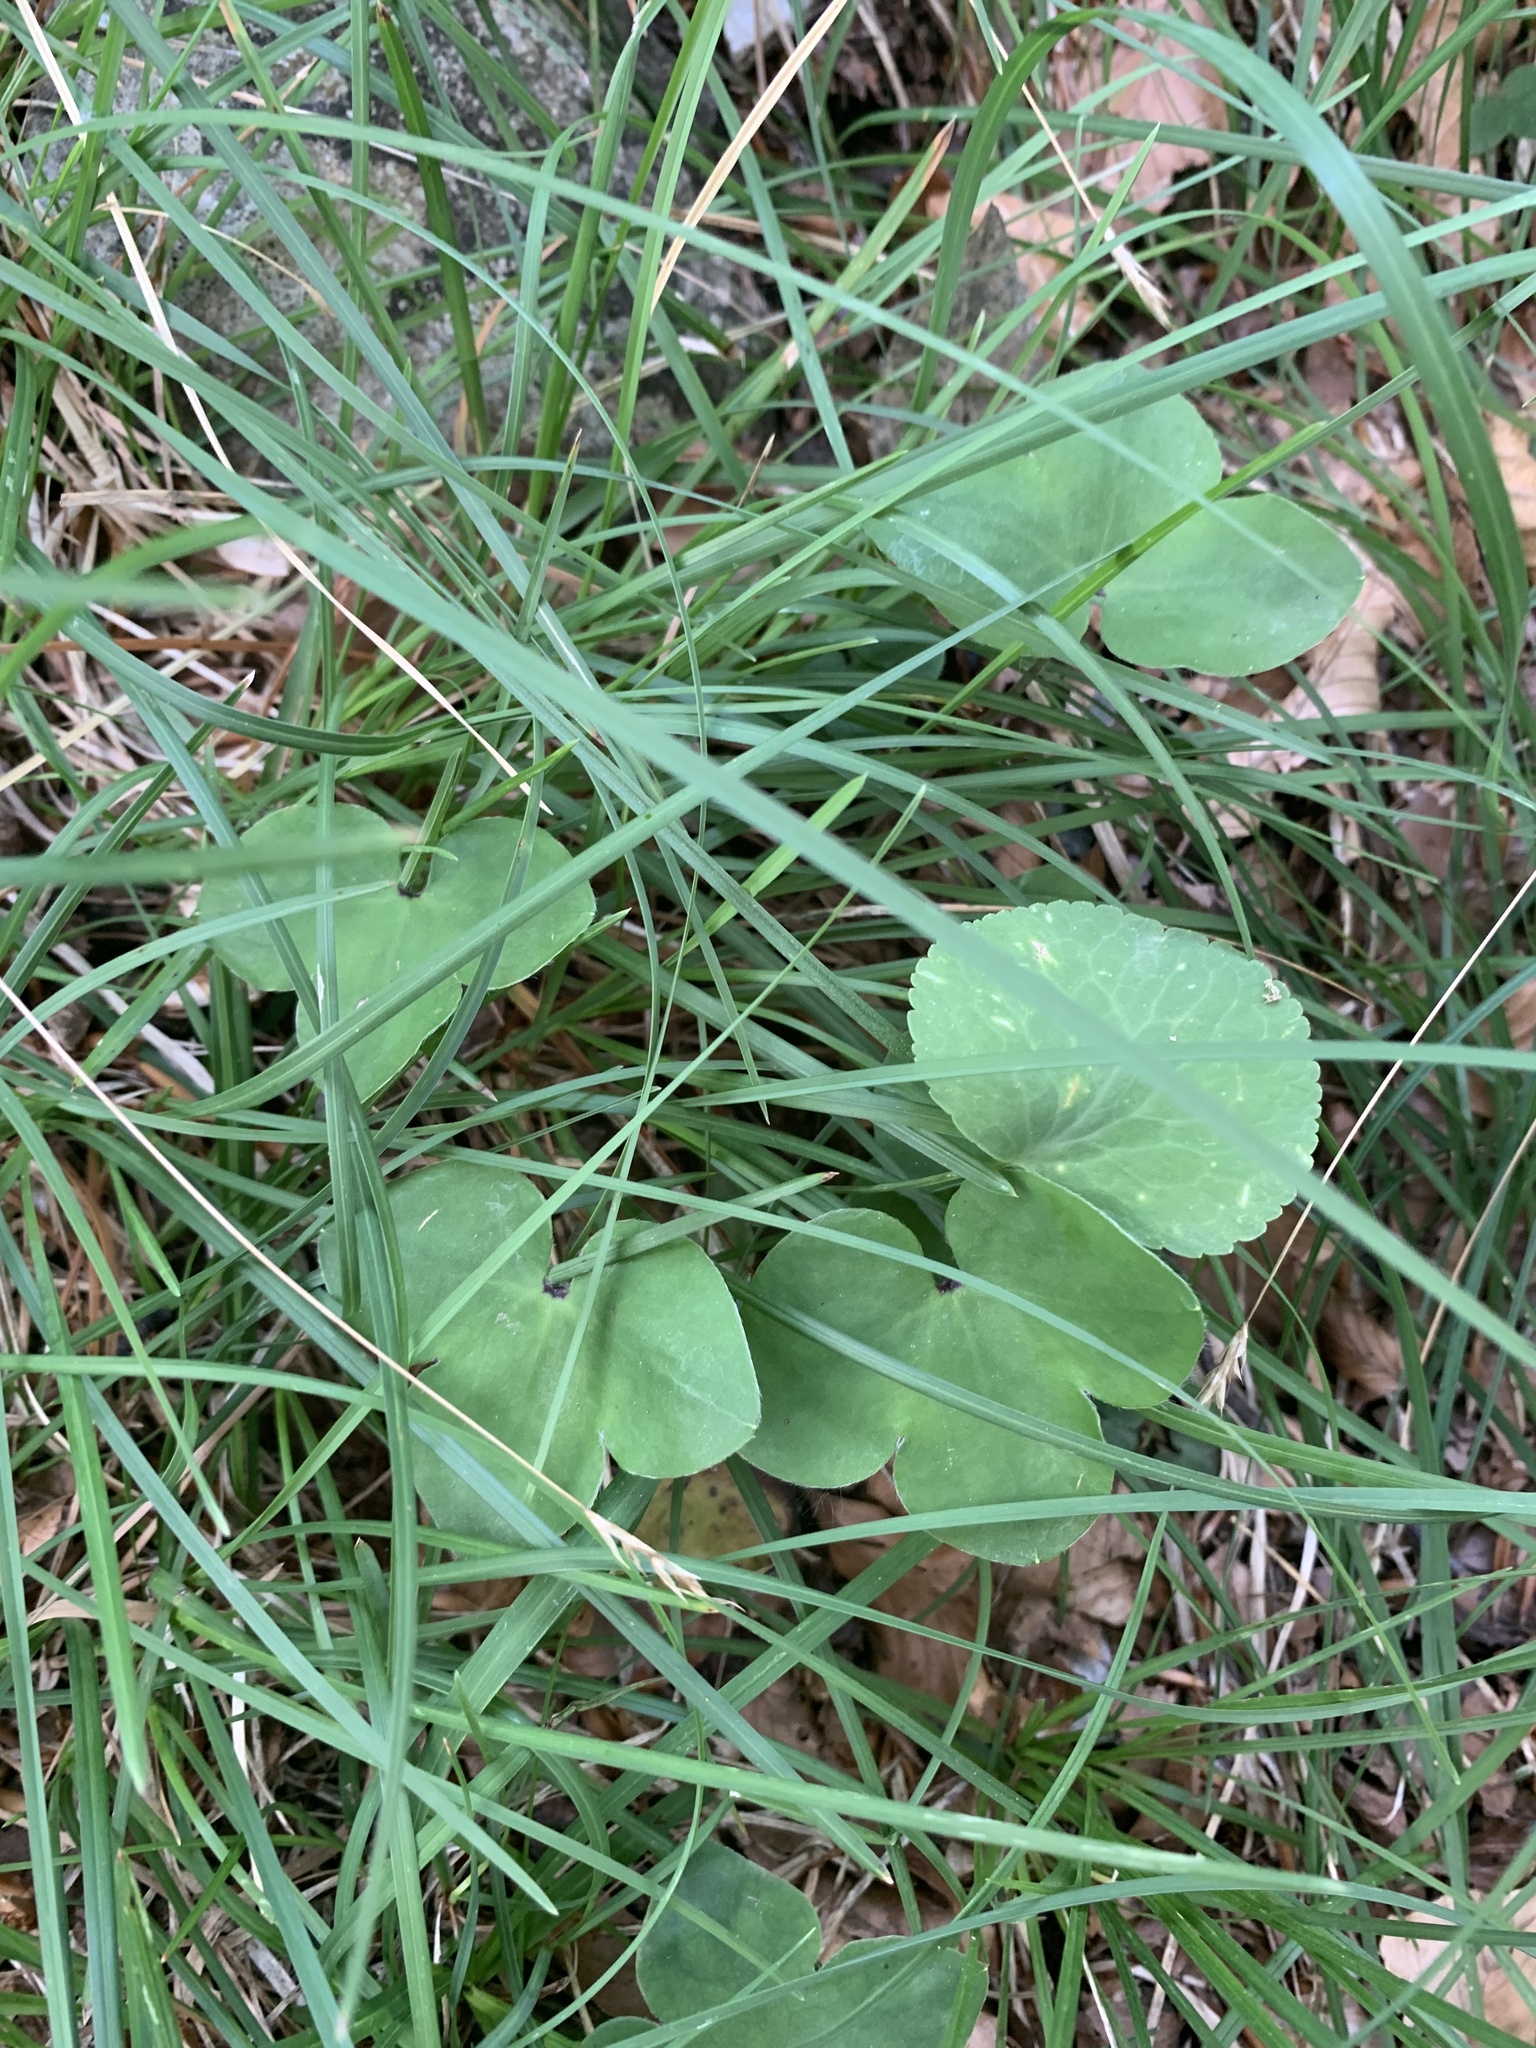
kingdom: Plantae
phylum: Tracheophyta
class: Magnoliopsida
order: Ranunculales
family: Ranunculaceae
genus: Hepatica
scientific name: Hepatica nobilis
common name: Liverleaf
